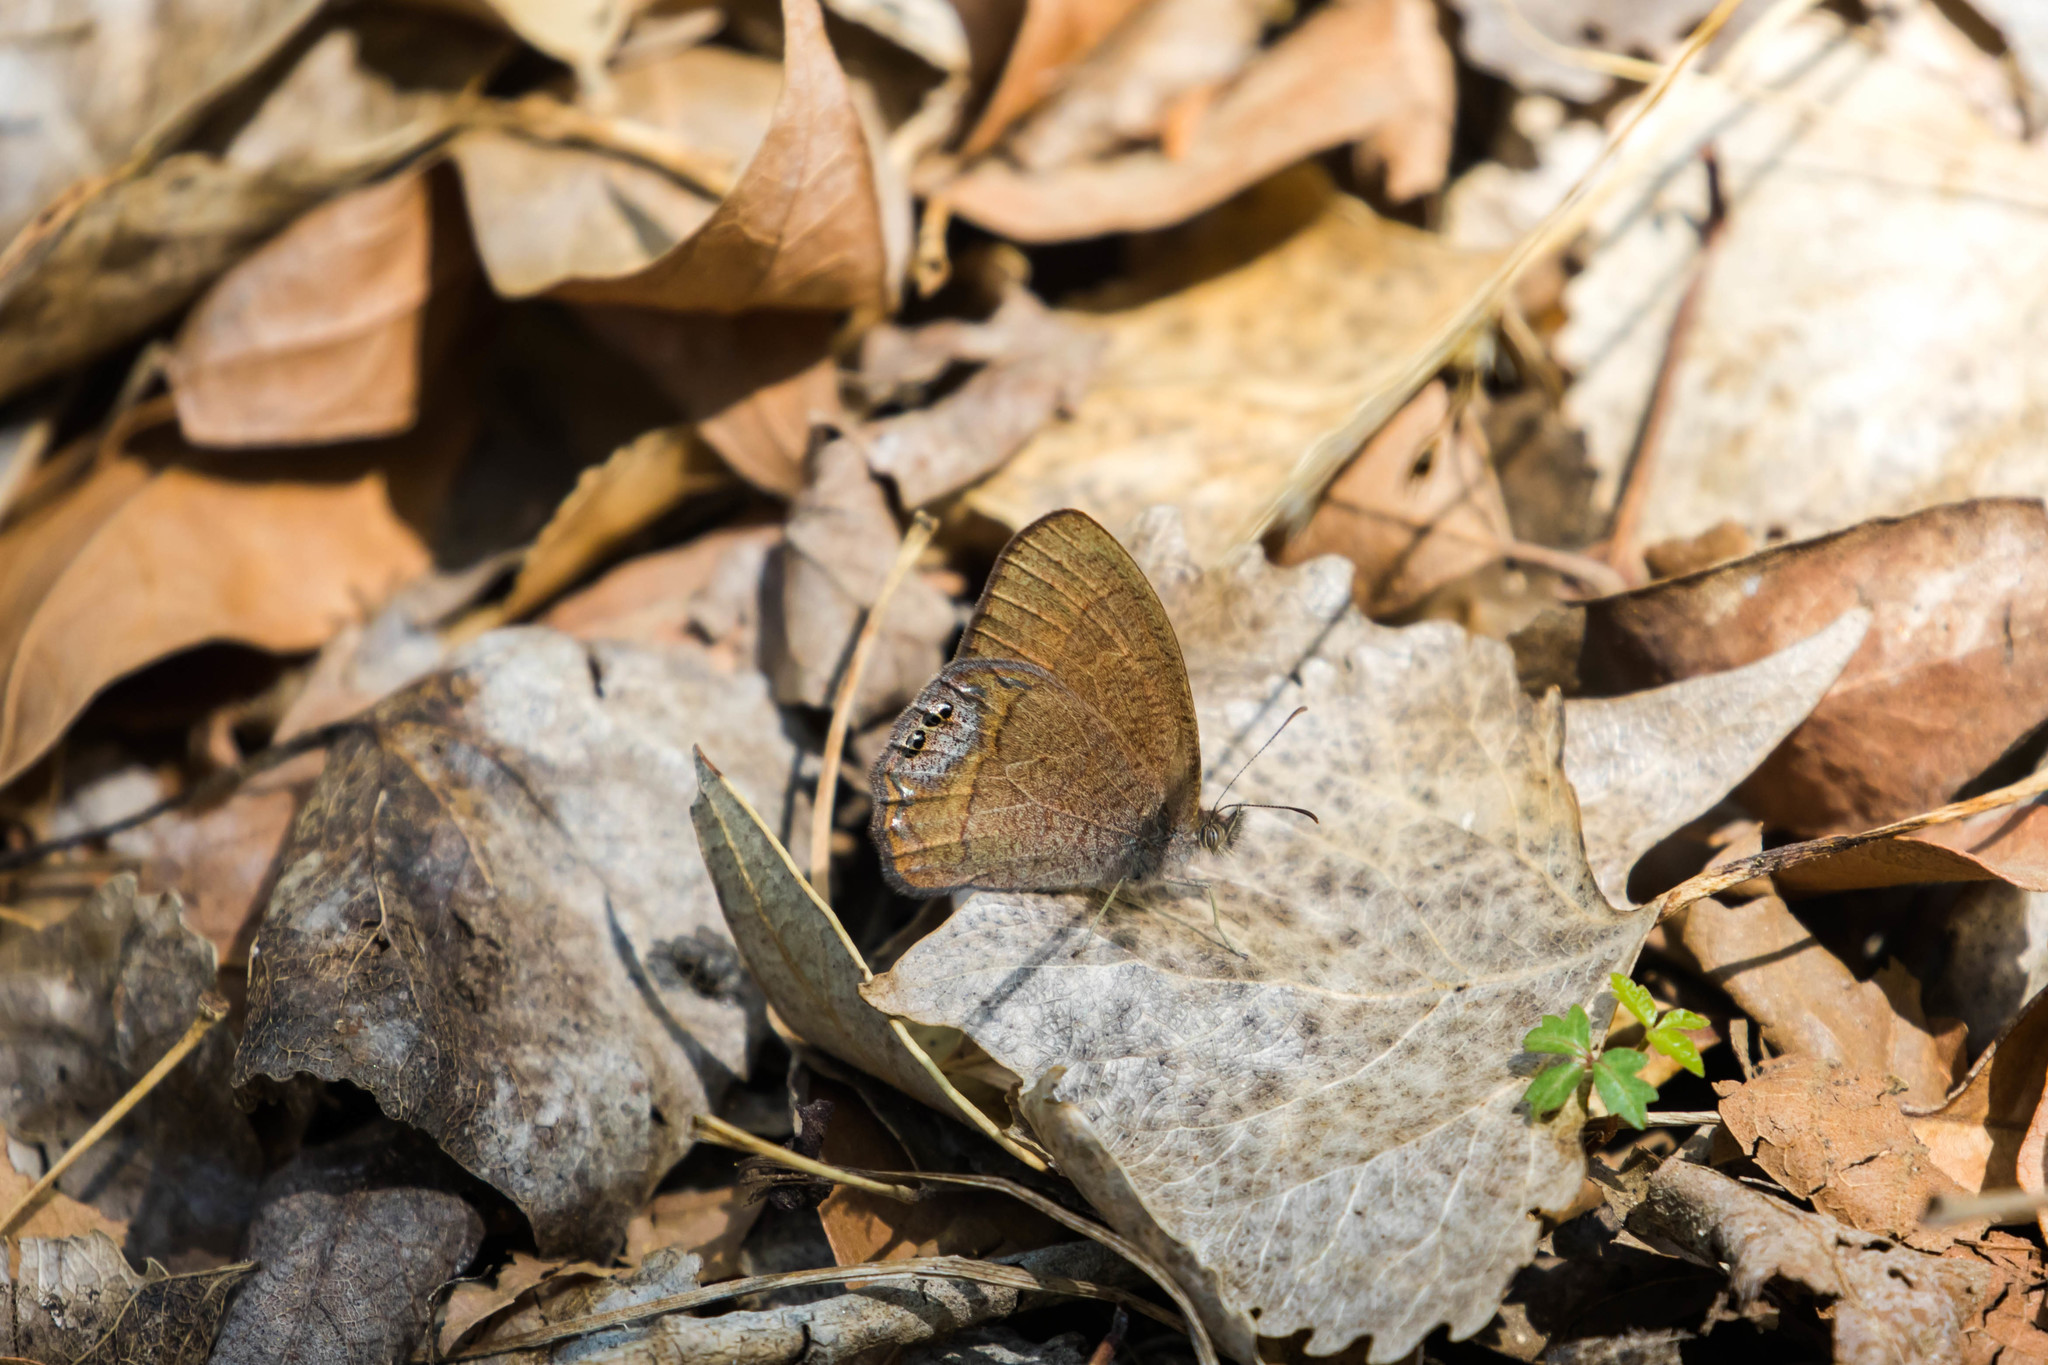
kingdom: Animalia
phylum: Arthropoda
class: Insecta
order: Lepidoptera
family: Nymphalidae
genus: Euptychia
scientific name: Euptychia pyracmon
